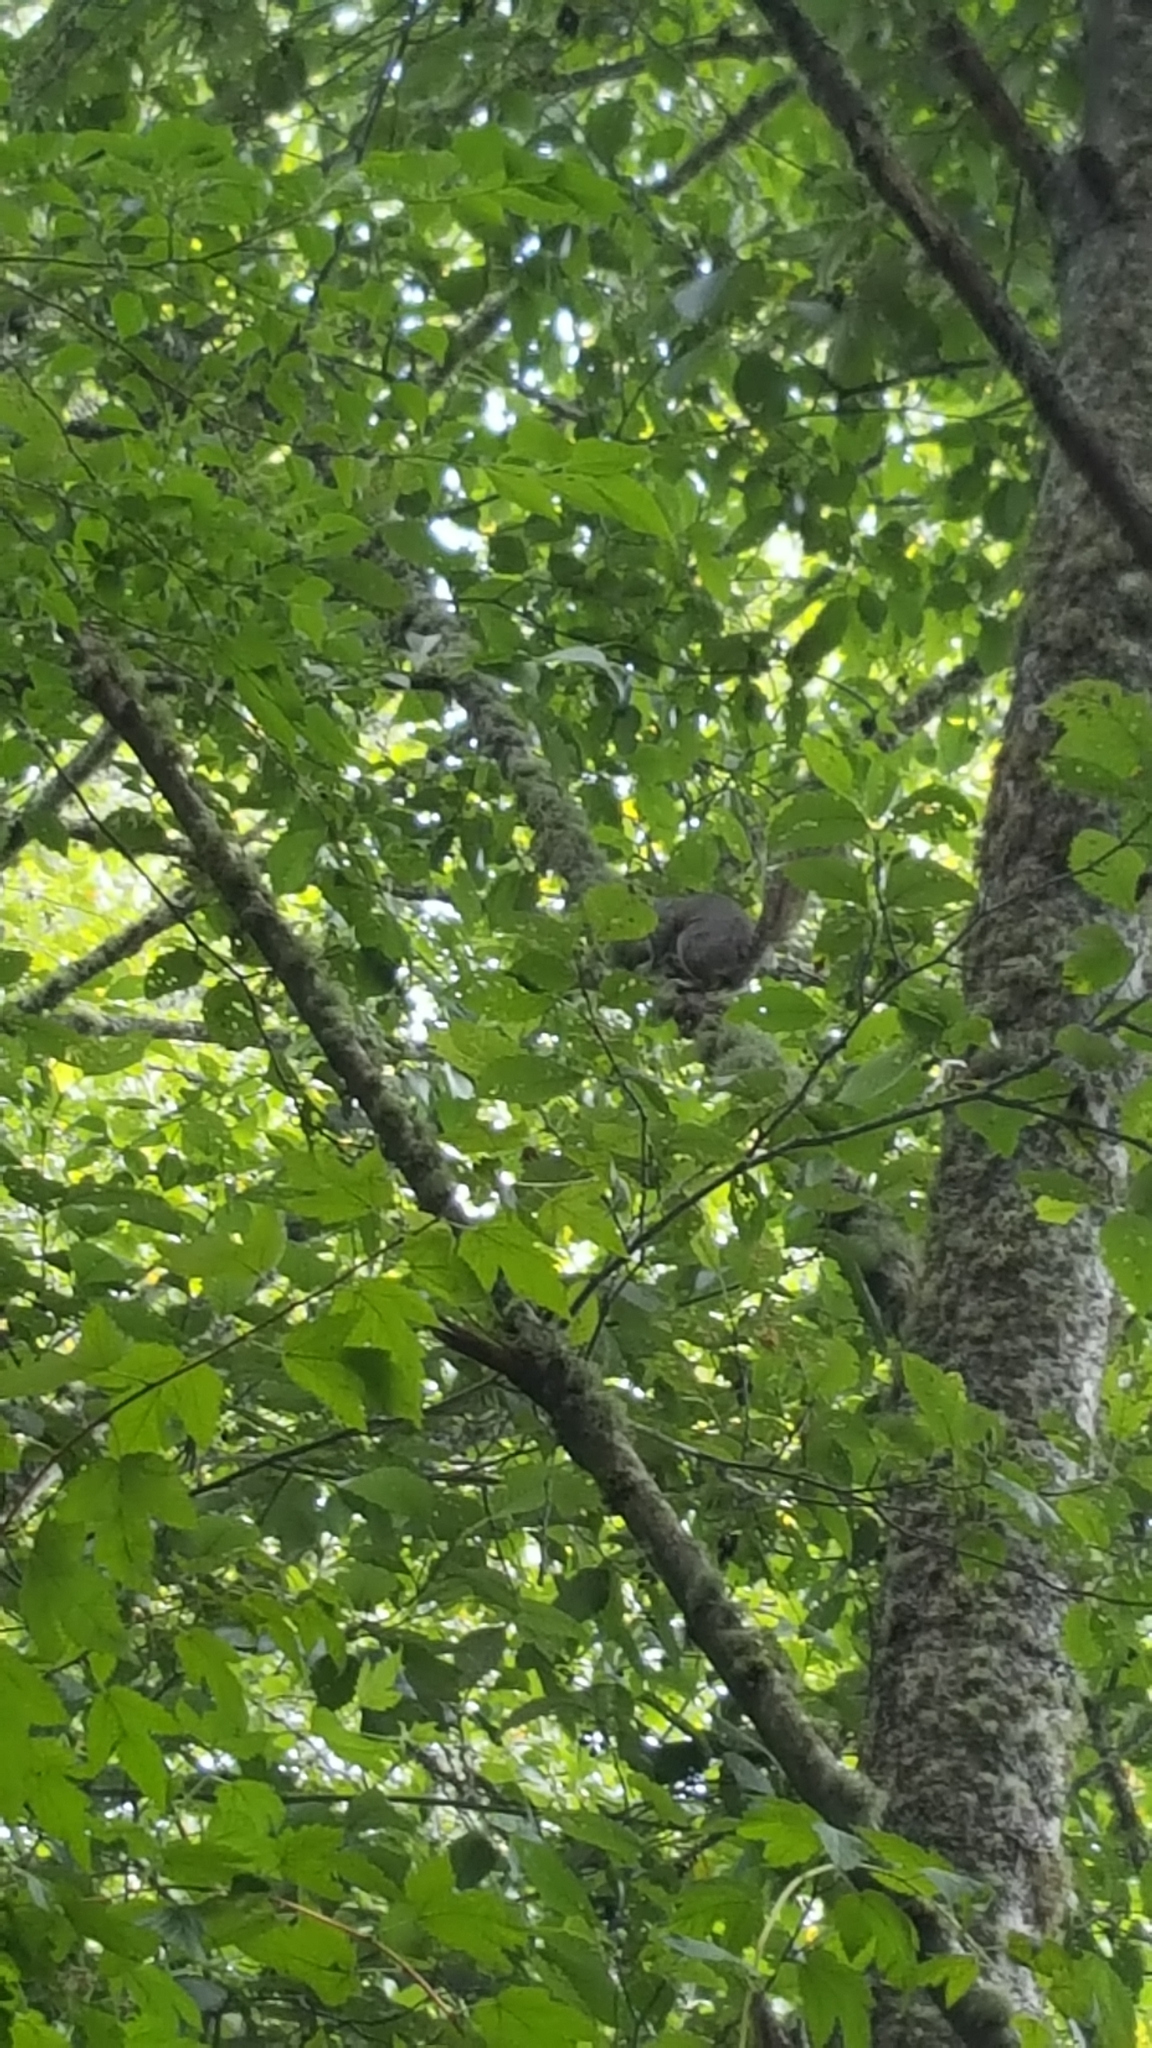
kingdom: Animalia
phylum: Chordata
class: Mammalia
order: Rodentia
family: Sciuridae
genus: Sciurus
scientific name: Sciurus carolinensis
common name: Eastern gray squirrel
